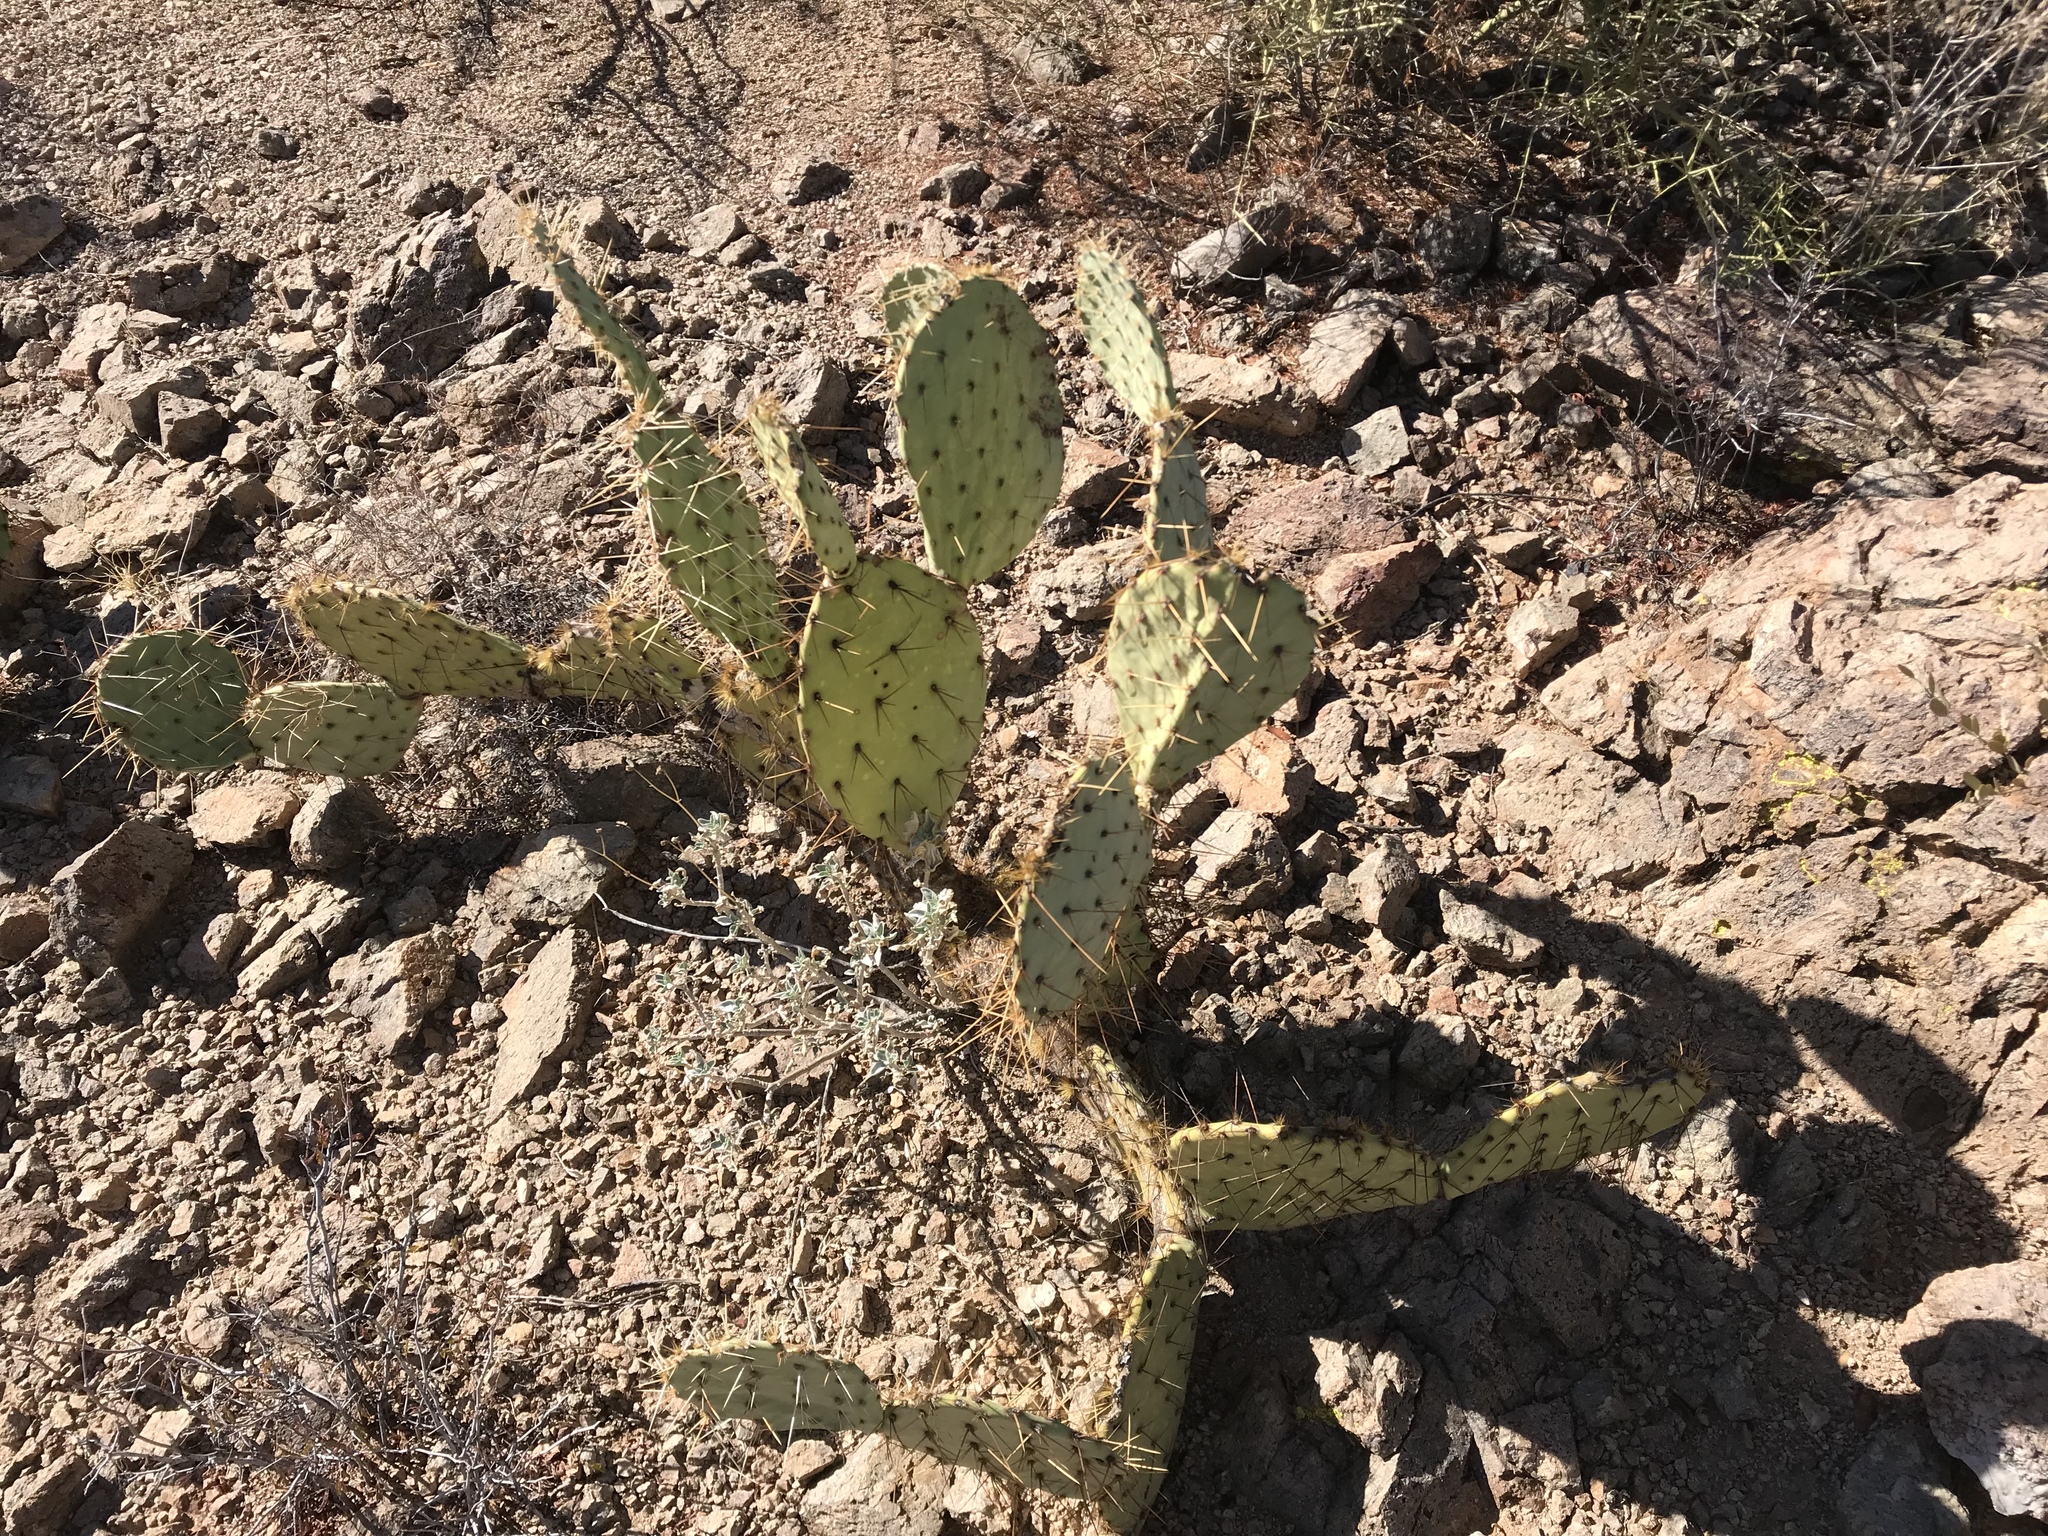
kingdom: Plantae
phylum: Tracheophyta
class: Magnoliopsida
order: Caryophyllales
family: Cactaceae
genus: Opuntia
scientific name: Opuntia engelmannii
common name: Cactus-apple
